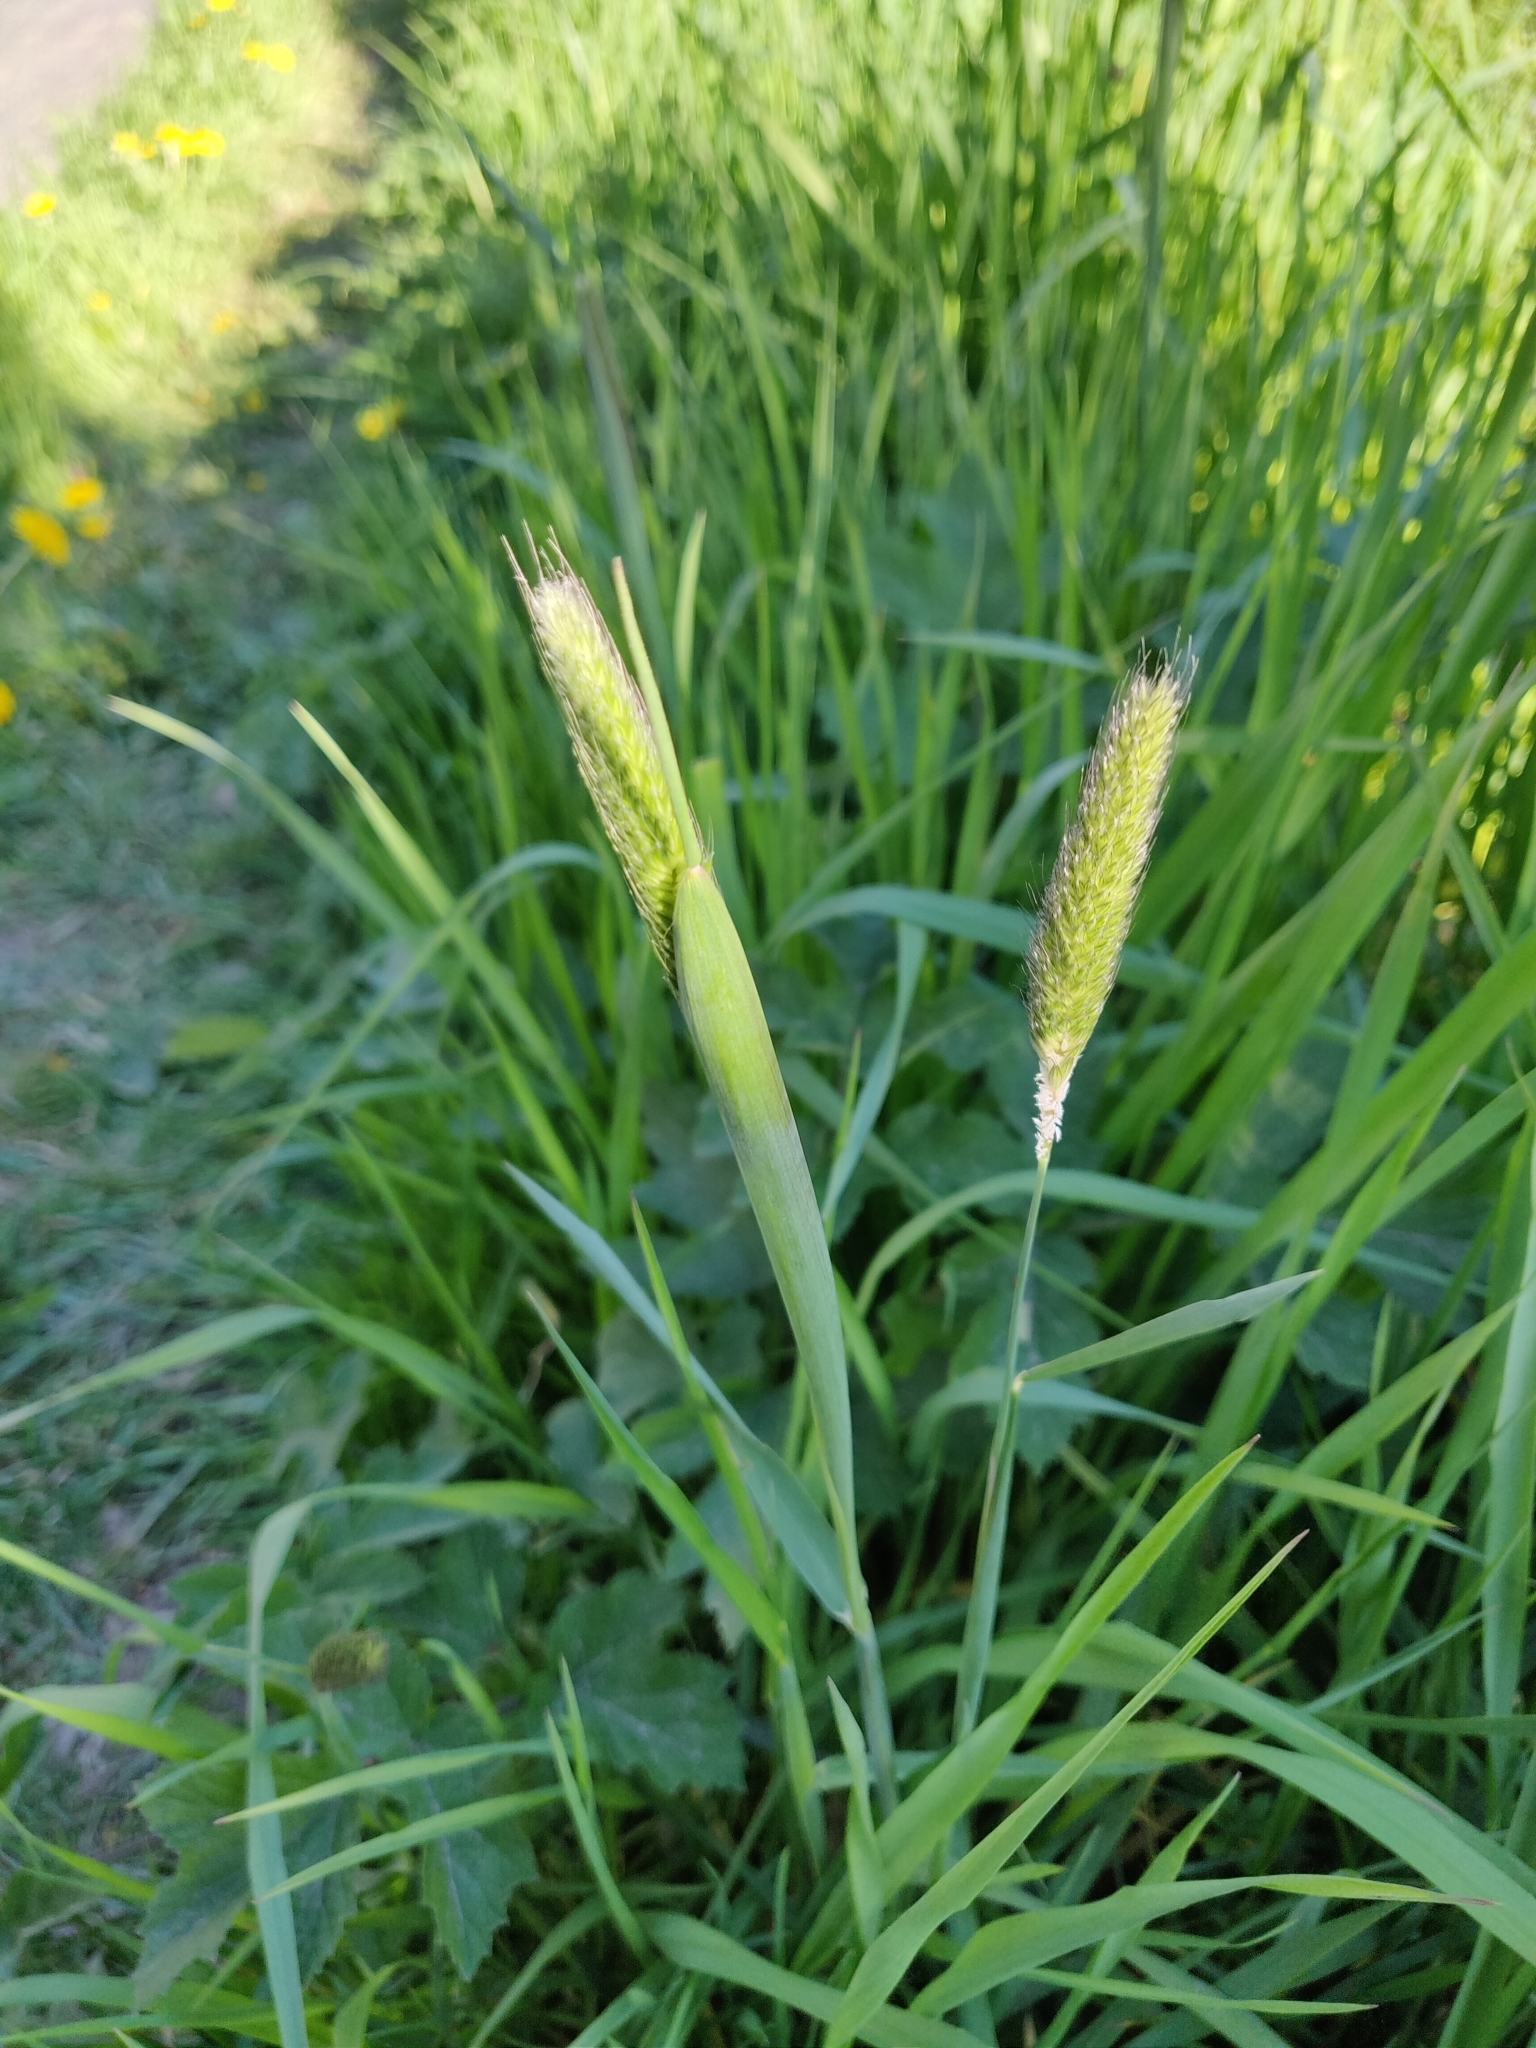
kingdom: Plantae
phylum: Tracheophyta
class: Liliopsida
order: Poales
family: Poaceae
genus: Alopecurus
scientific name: Alopecurus pratensis
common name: Meadow foxtail
